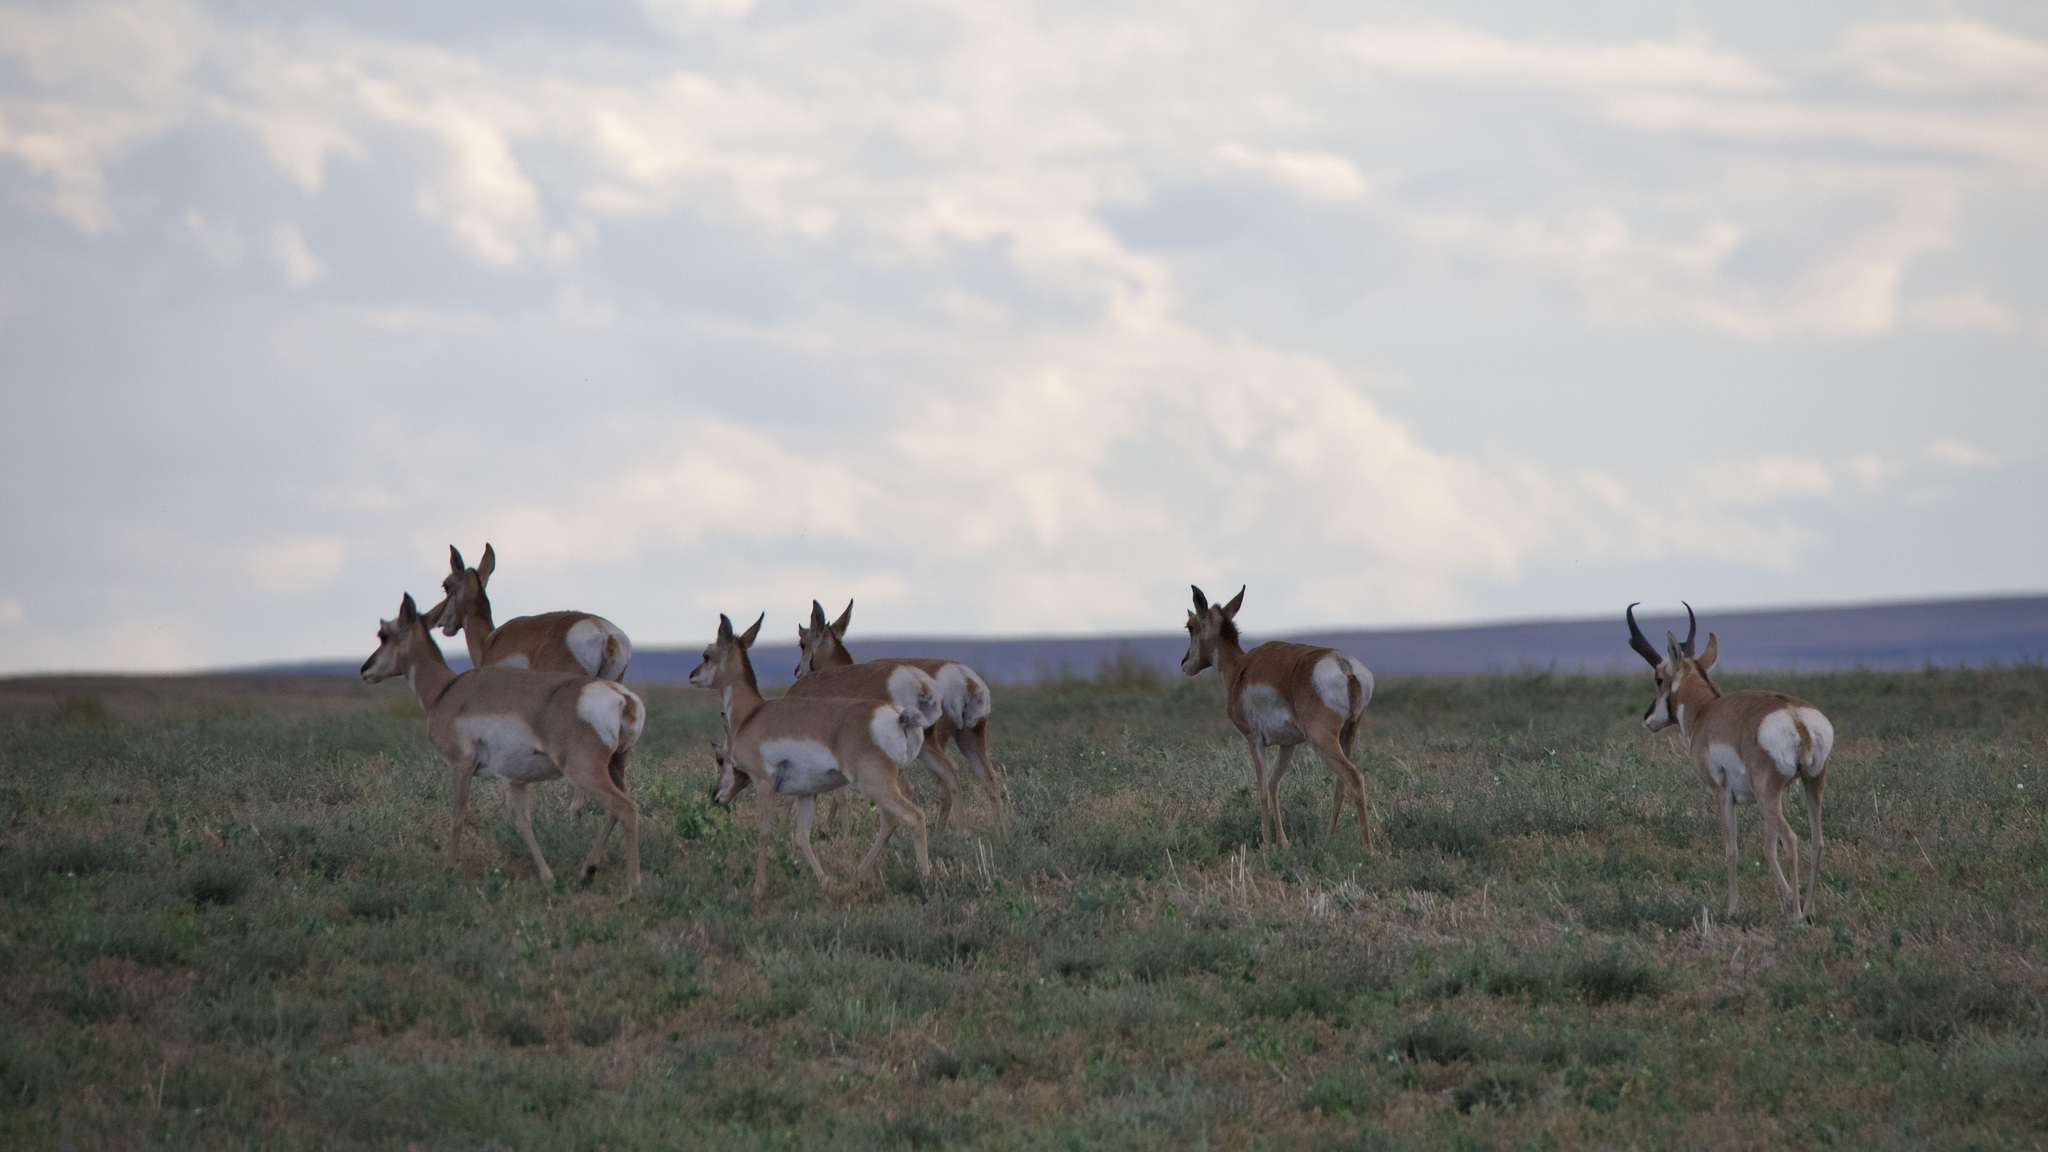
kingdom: Animalia
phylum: Chordata
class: Mammalia
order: Artiodactyla
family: Antilocapridae
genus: Antilocapra
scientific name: Antilocapra americana
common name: Pronghorn
